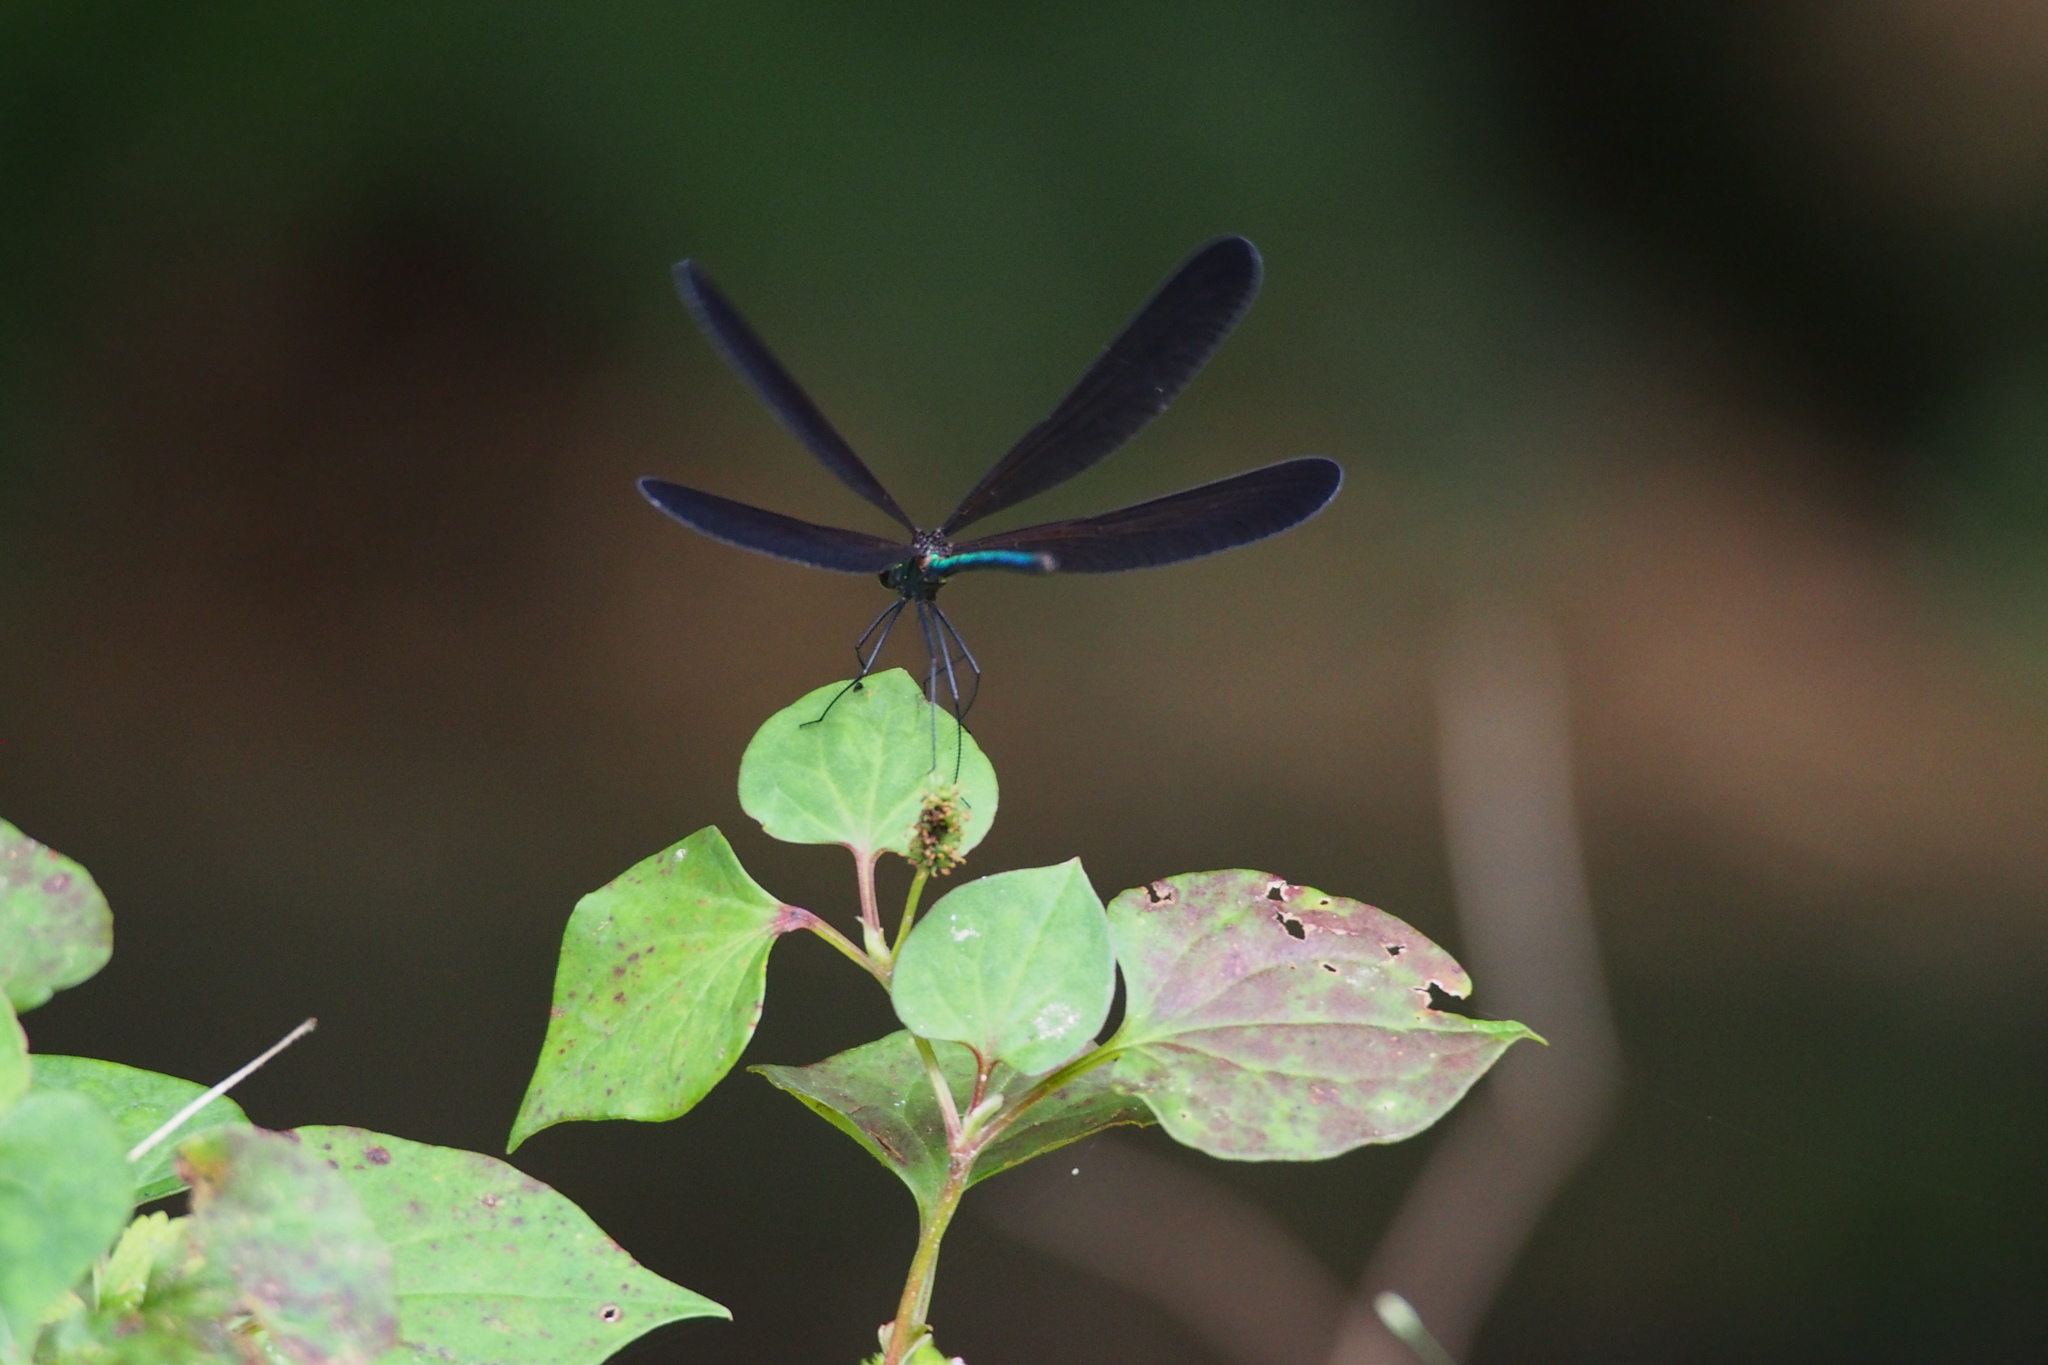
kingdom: Animalia
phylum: Arthropoda
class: Insecta
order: Odonata
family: Calopterygidae
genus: Atrocalopteryx
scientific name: Atrocalopteryx atrata
